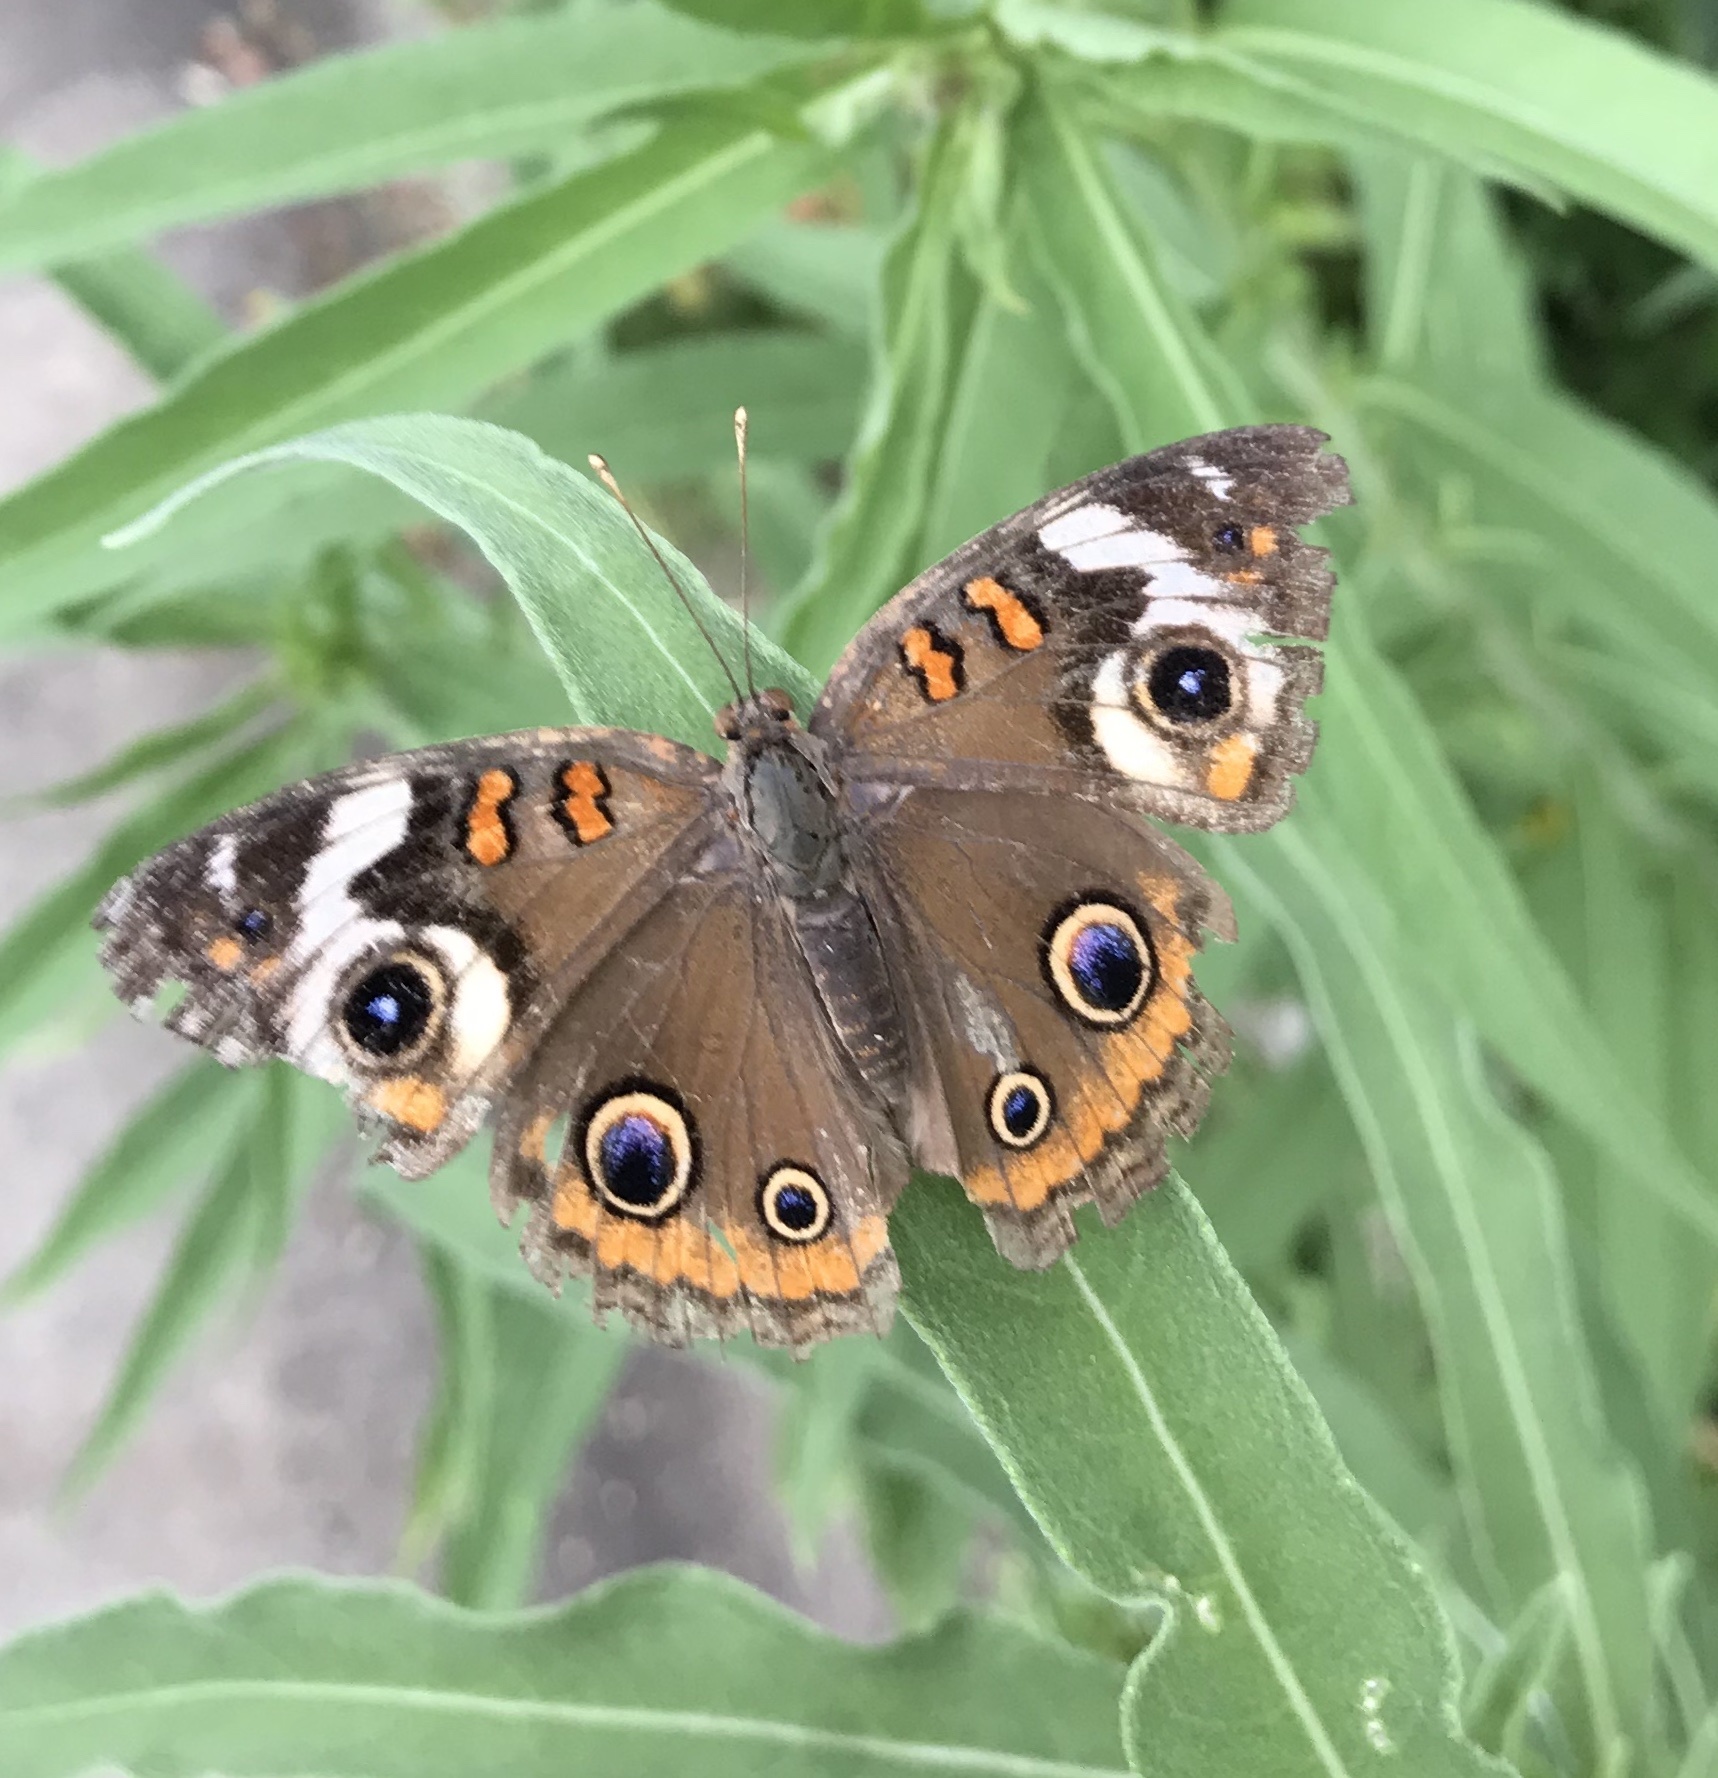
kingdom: Animalia
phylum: Arthropoda
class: Insecta
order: Lepidoptera
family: Nymphalidae
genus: Junonia
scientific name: Junonia coenia
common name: Common buckeye
